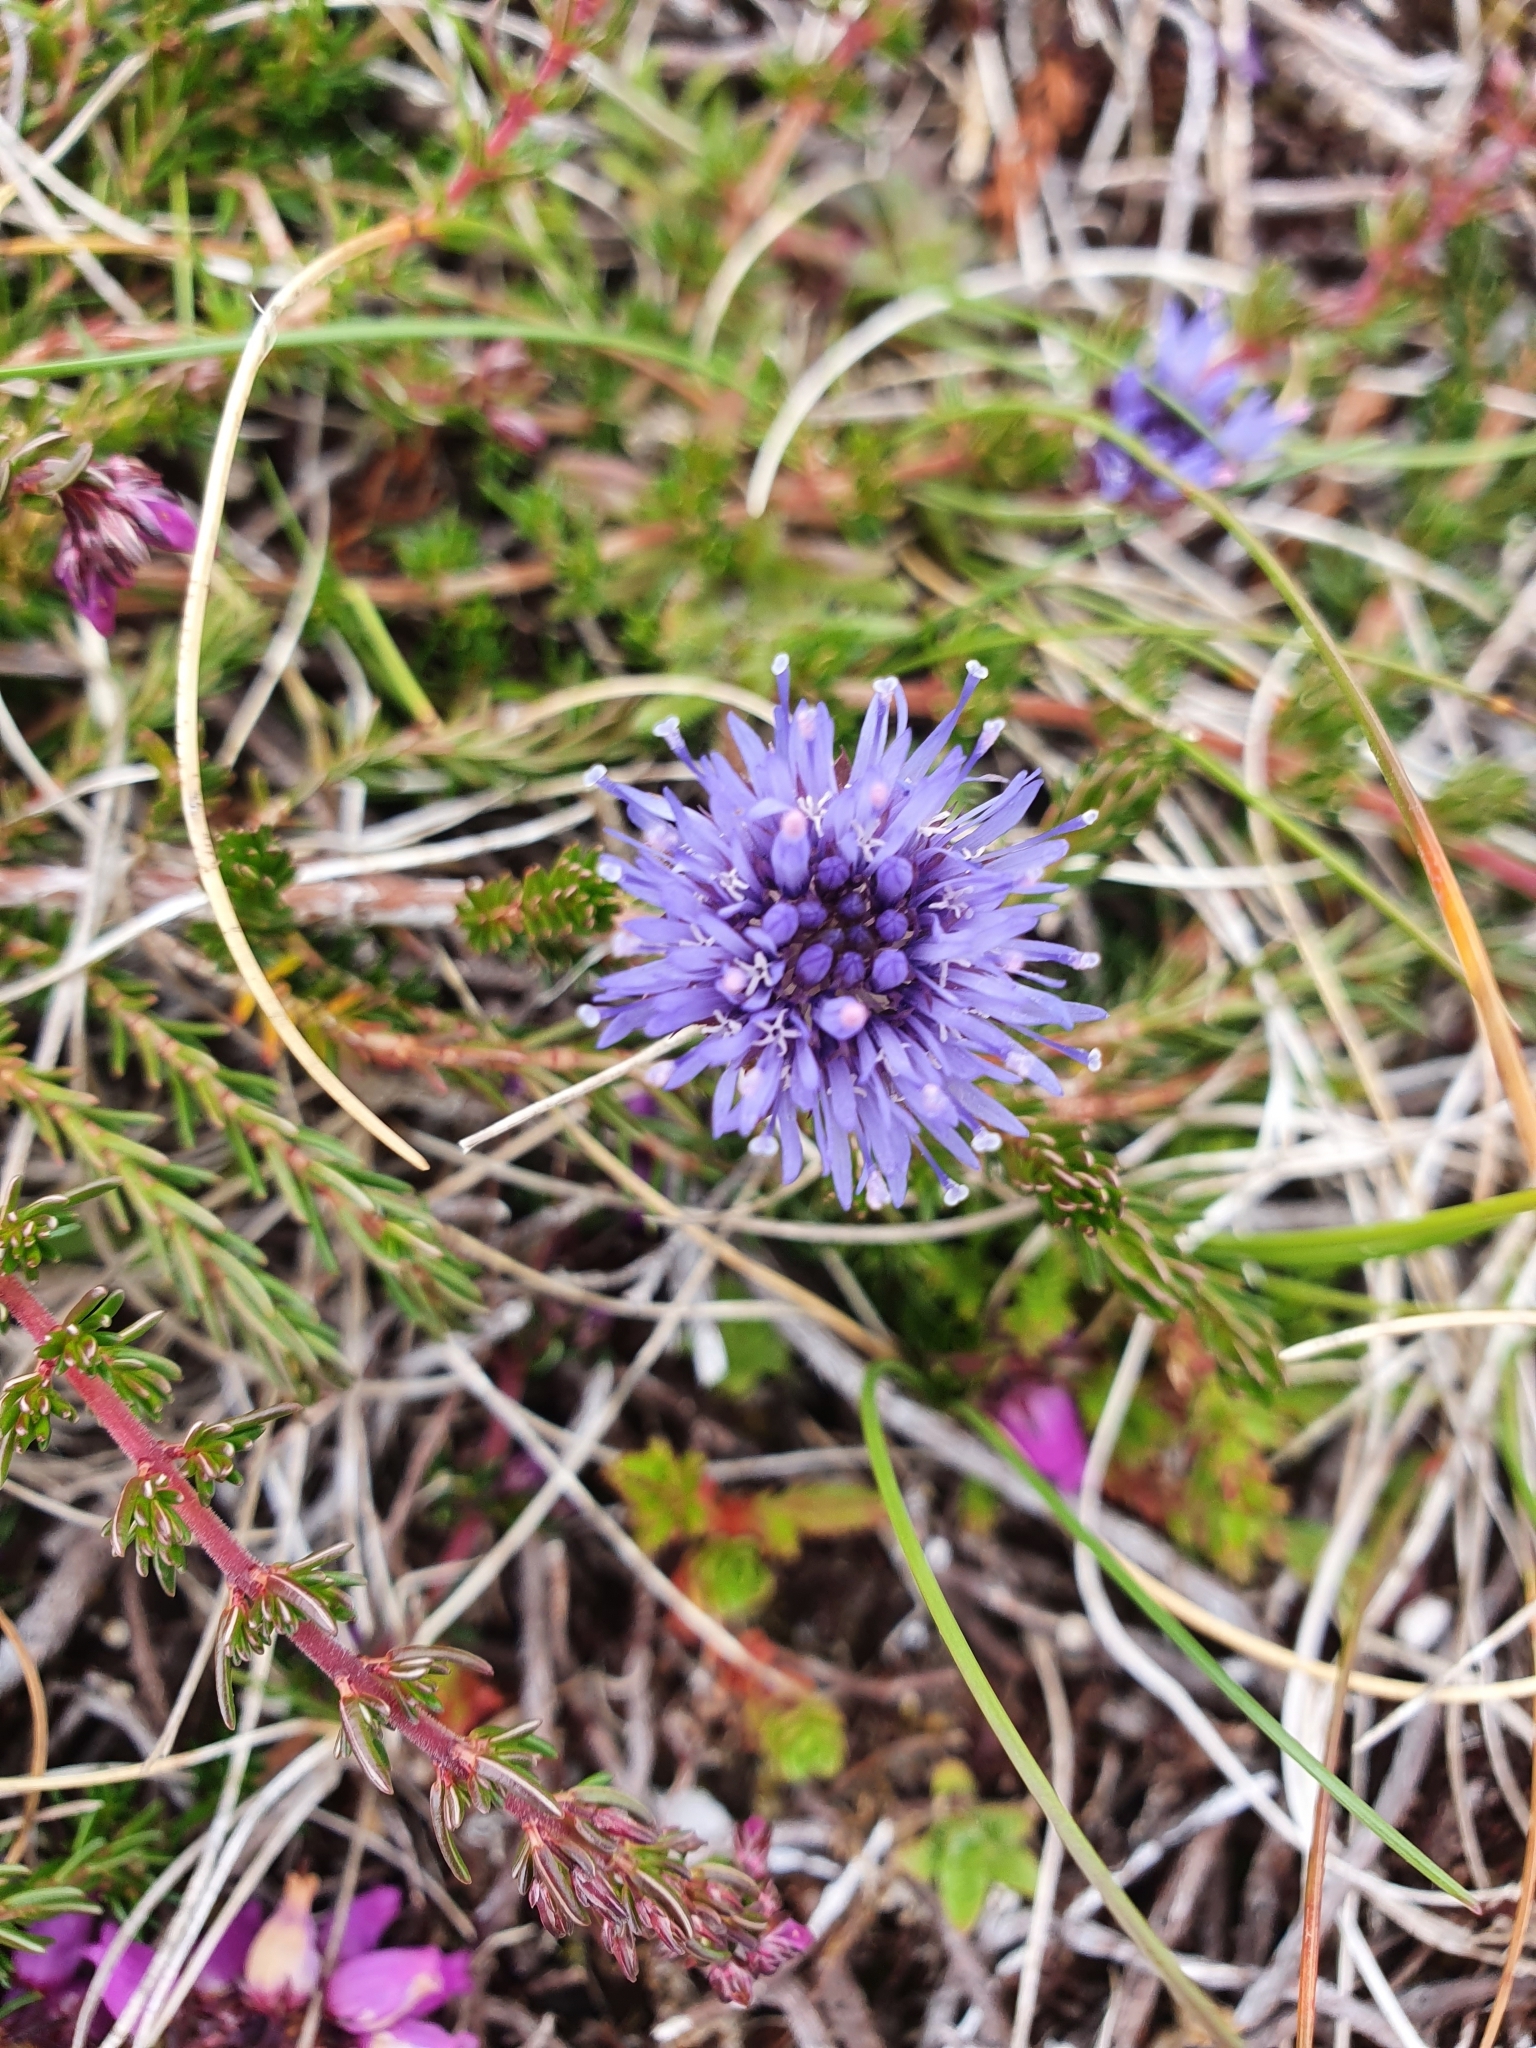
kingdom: Plantae
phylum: Tracheophyta
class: Magnoliopsida
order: Asterales
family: Campanulaceae
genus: Jasione
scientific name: Jasione montana
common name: Sheep's-bit
